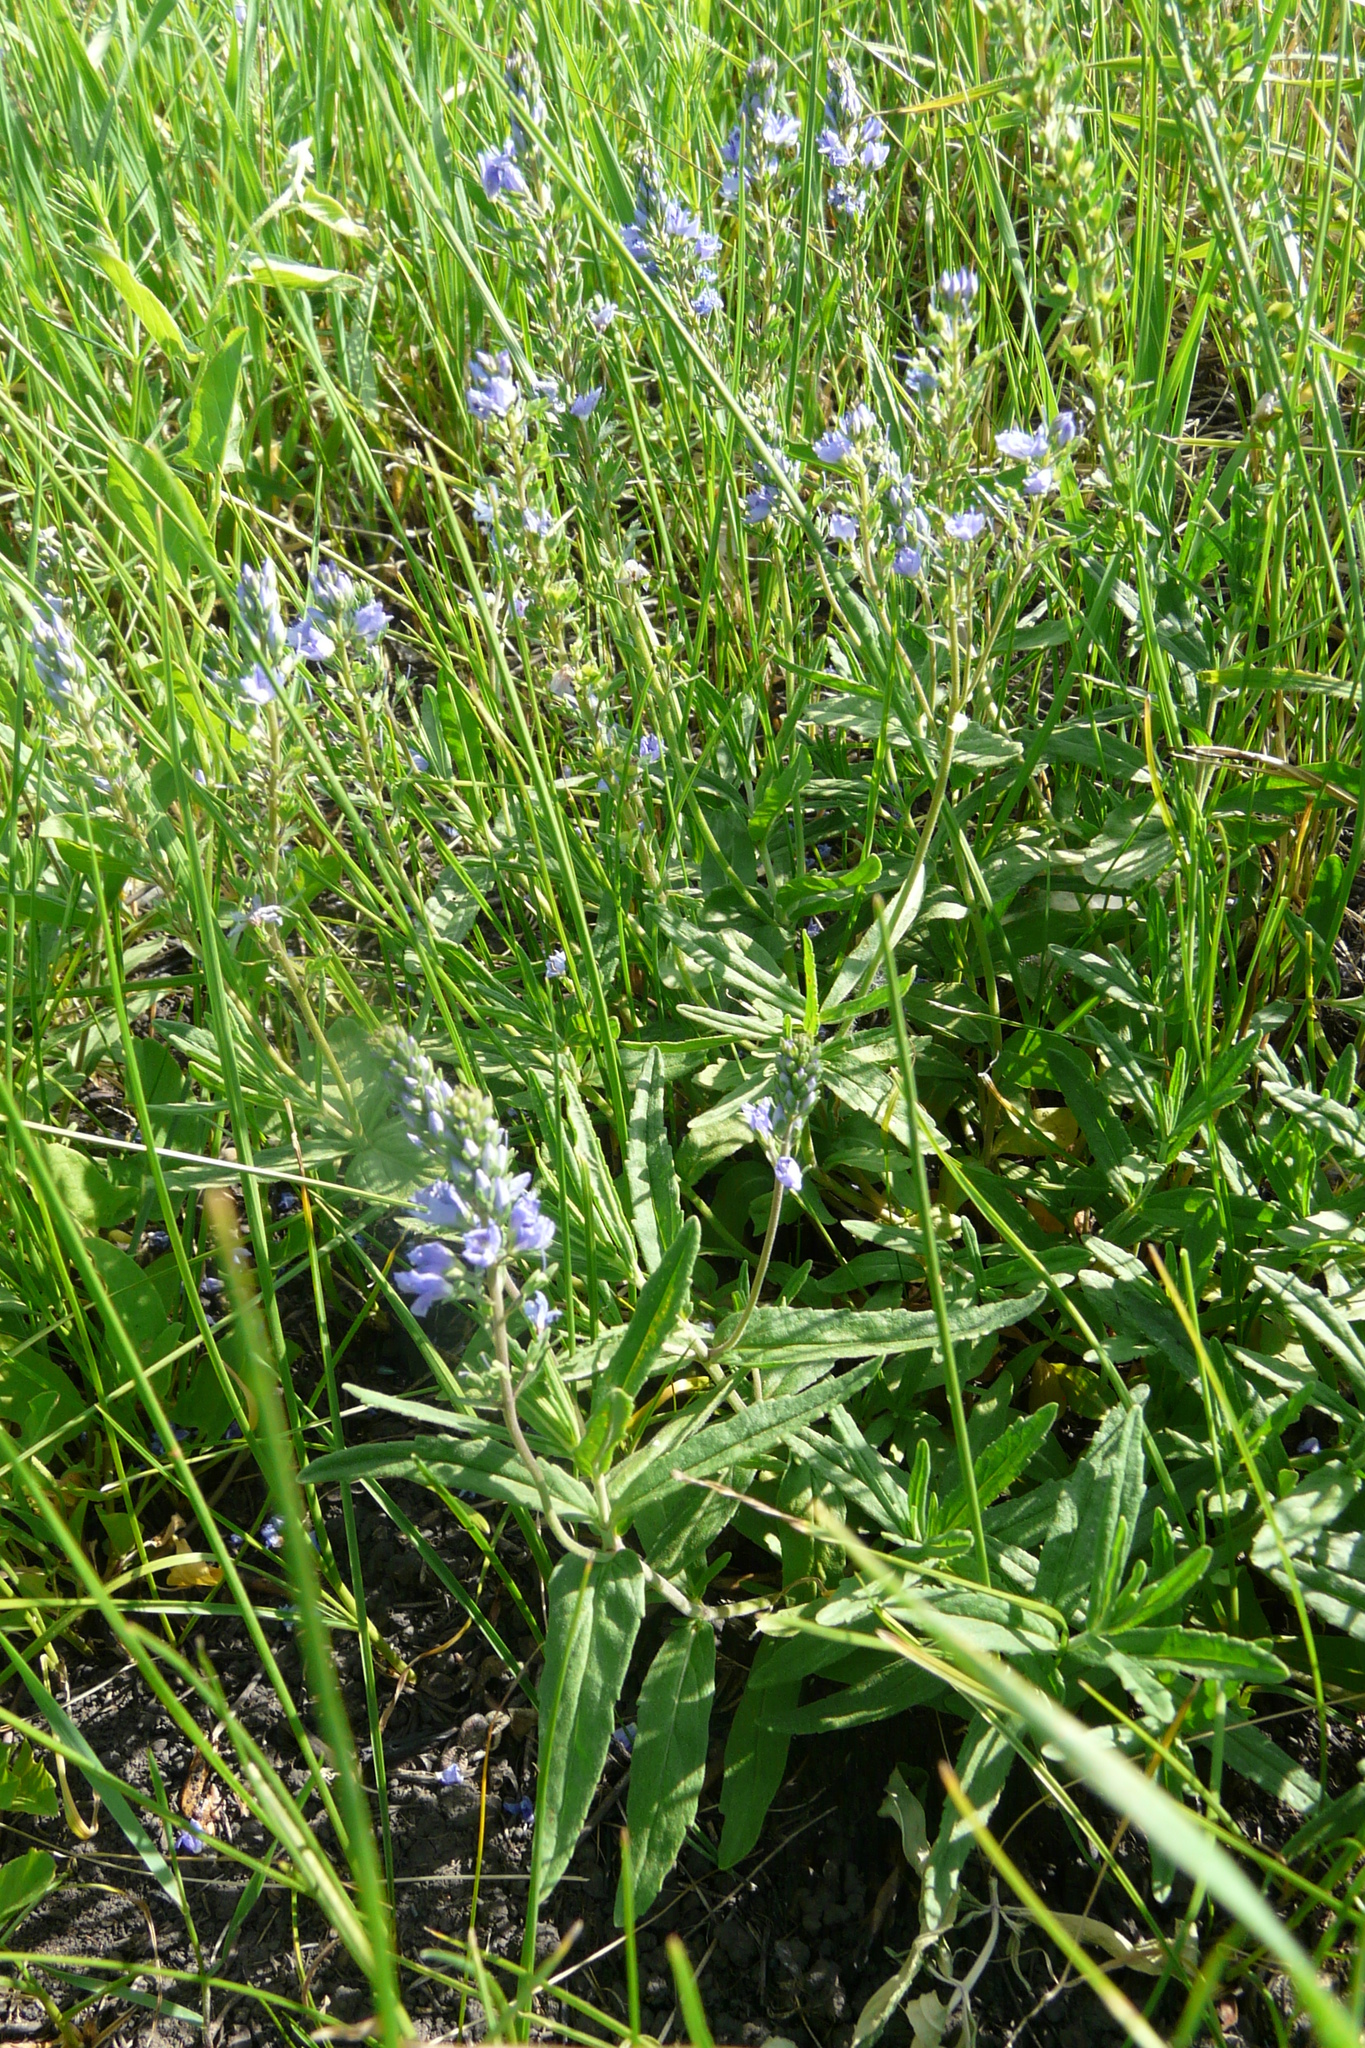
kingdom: Plantae
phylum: Tracheophyta
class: Magnoliopsida
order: Lamiales
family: Plantaginaceae
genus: Veronica
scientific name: Veronica prostrata
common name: Prostrate speedwell
